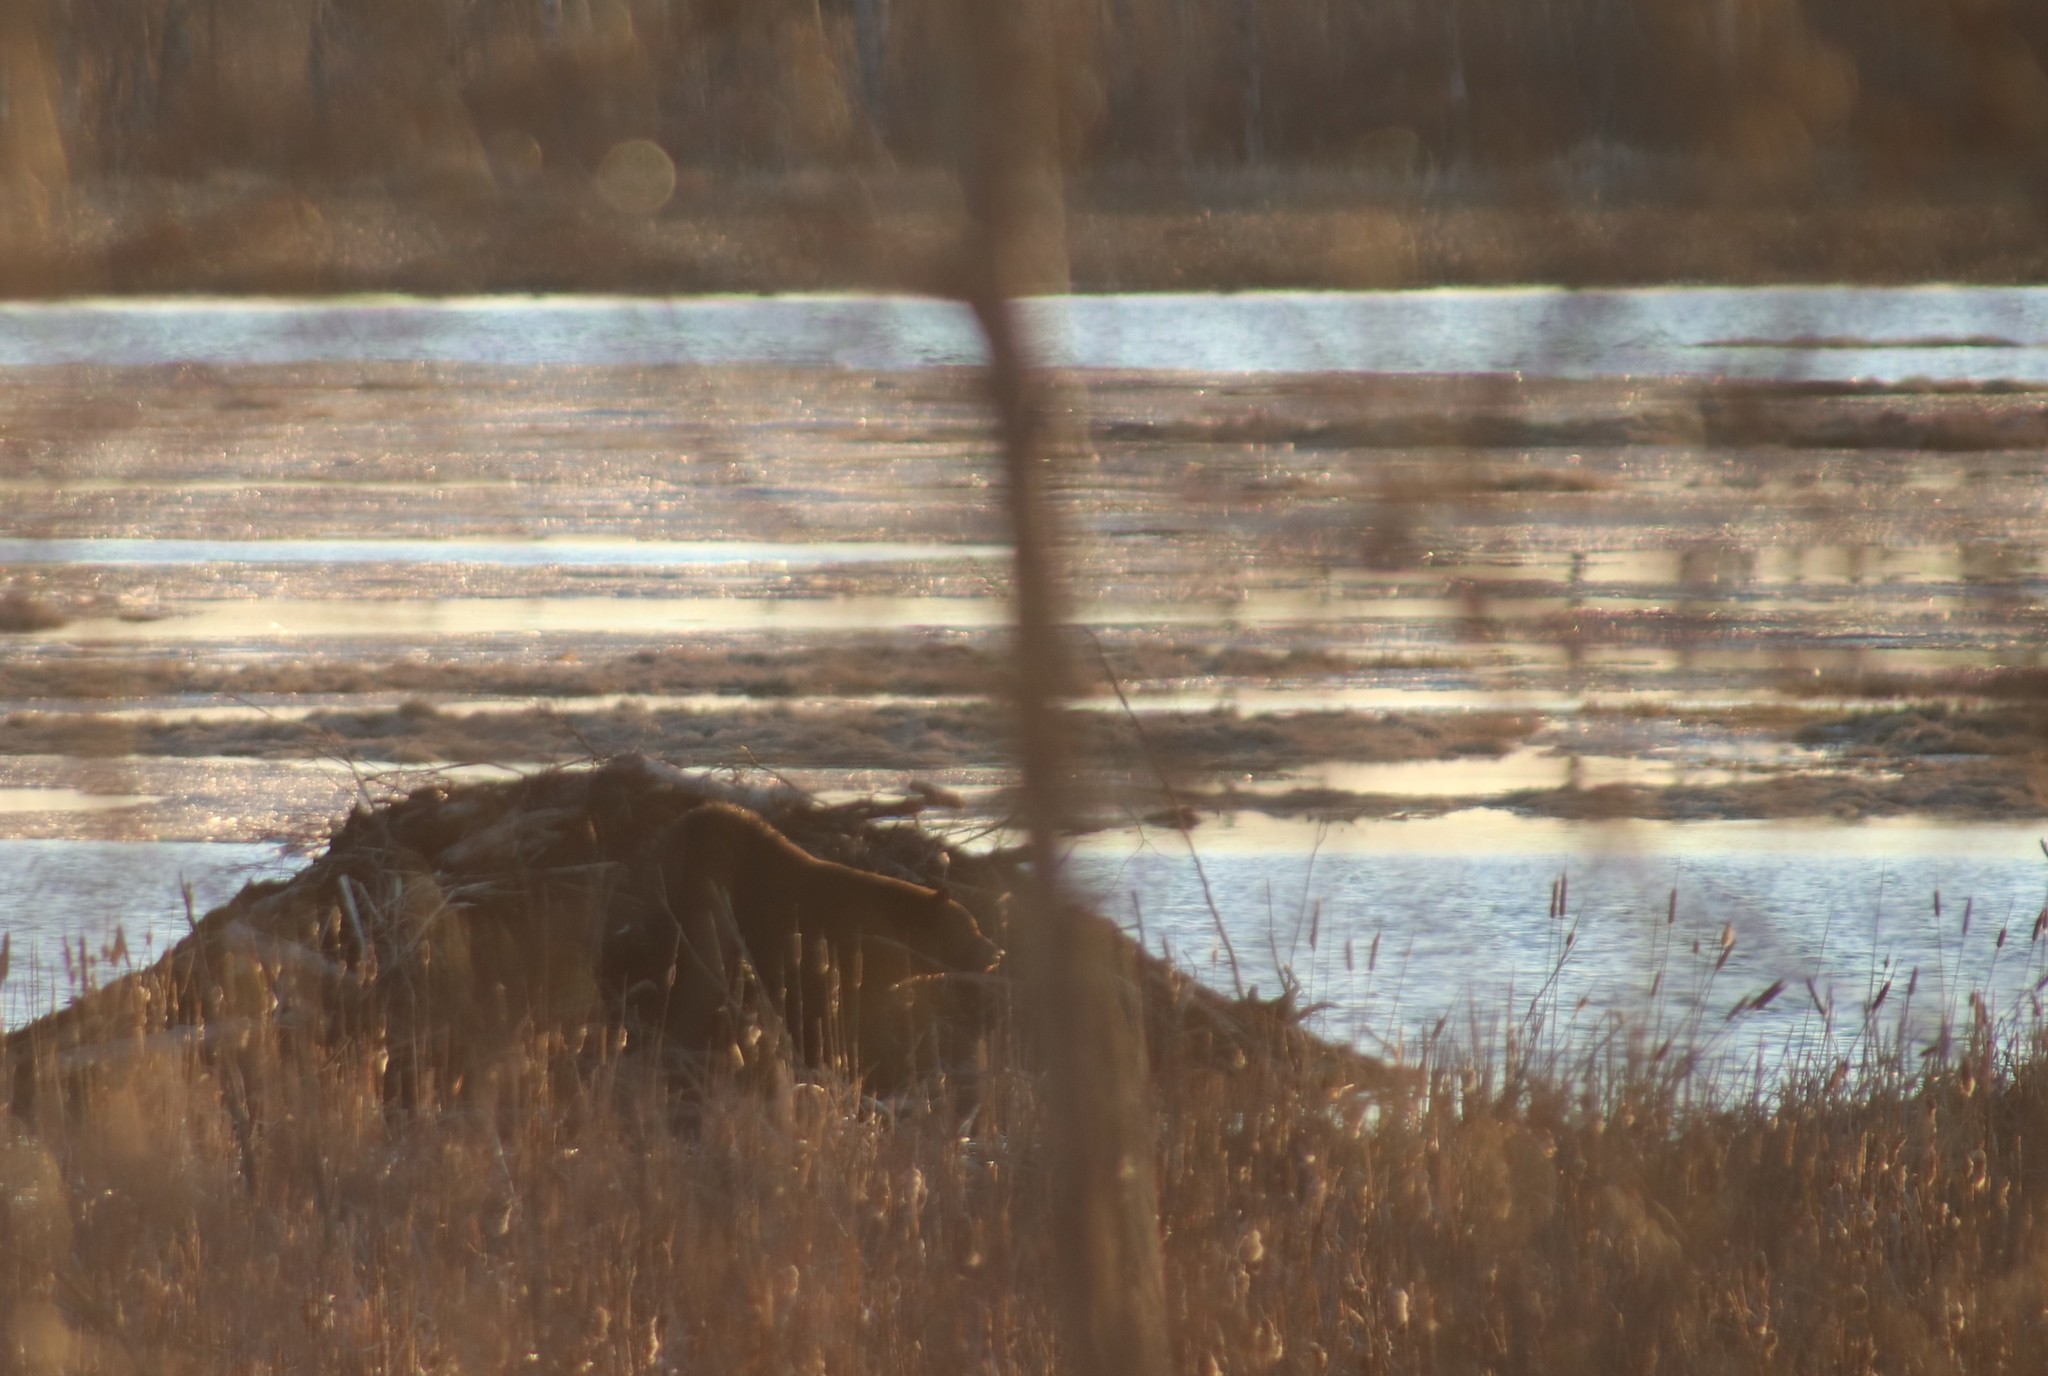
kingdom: Animalia
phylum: Chordata
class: Mammalia
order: Carnivora
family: Ursidae
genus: Ursus
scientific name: Ursus americanus
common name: American black bear
